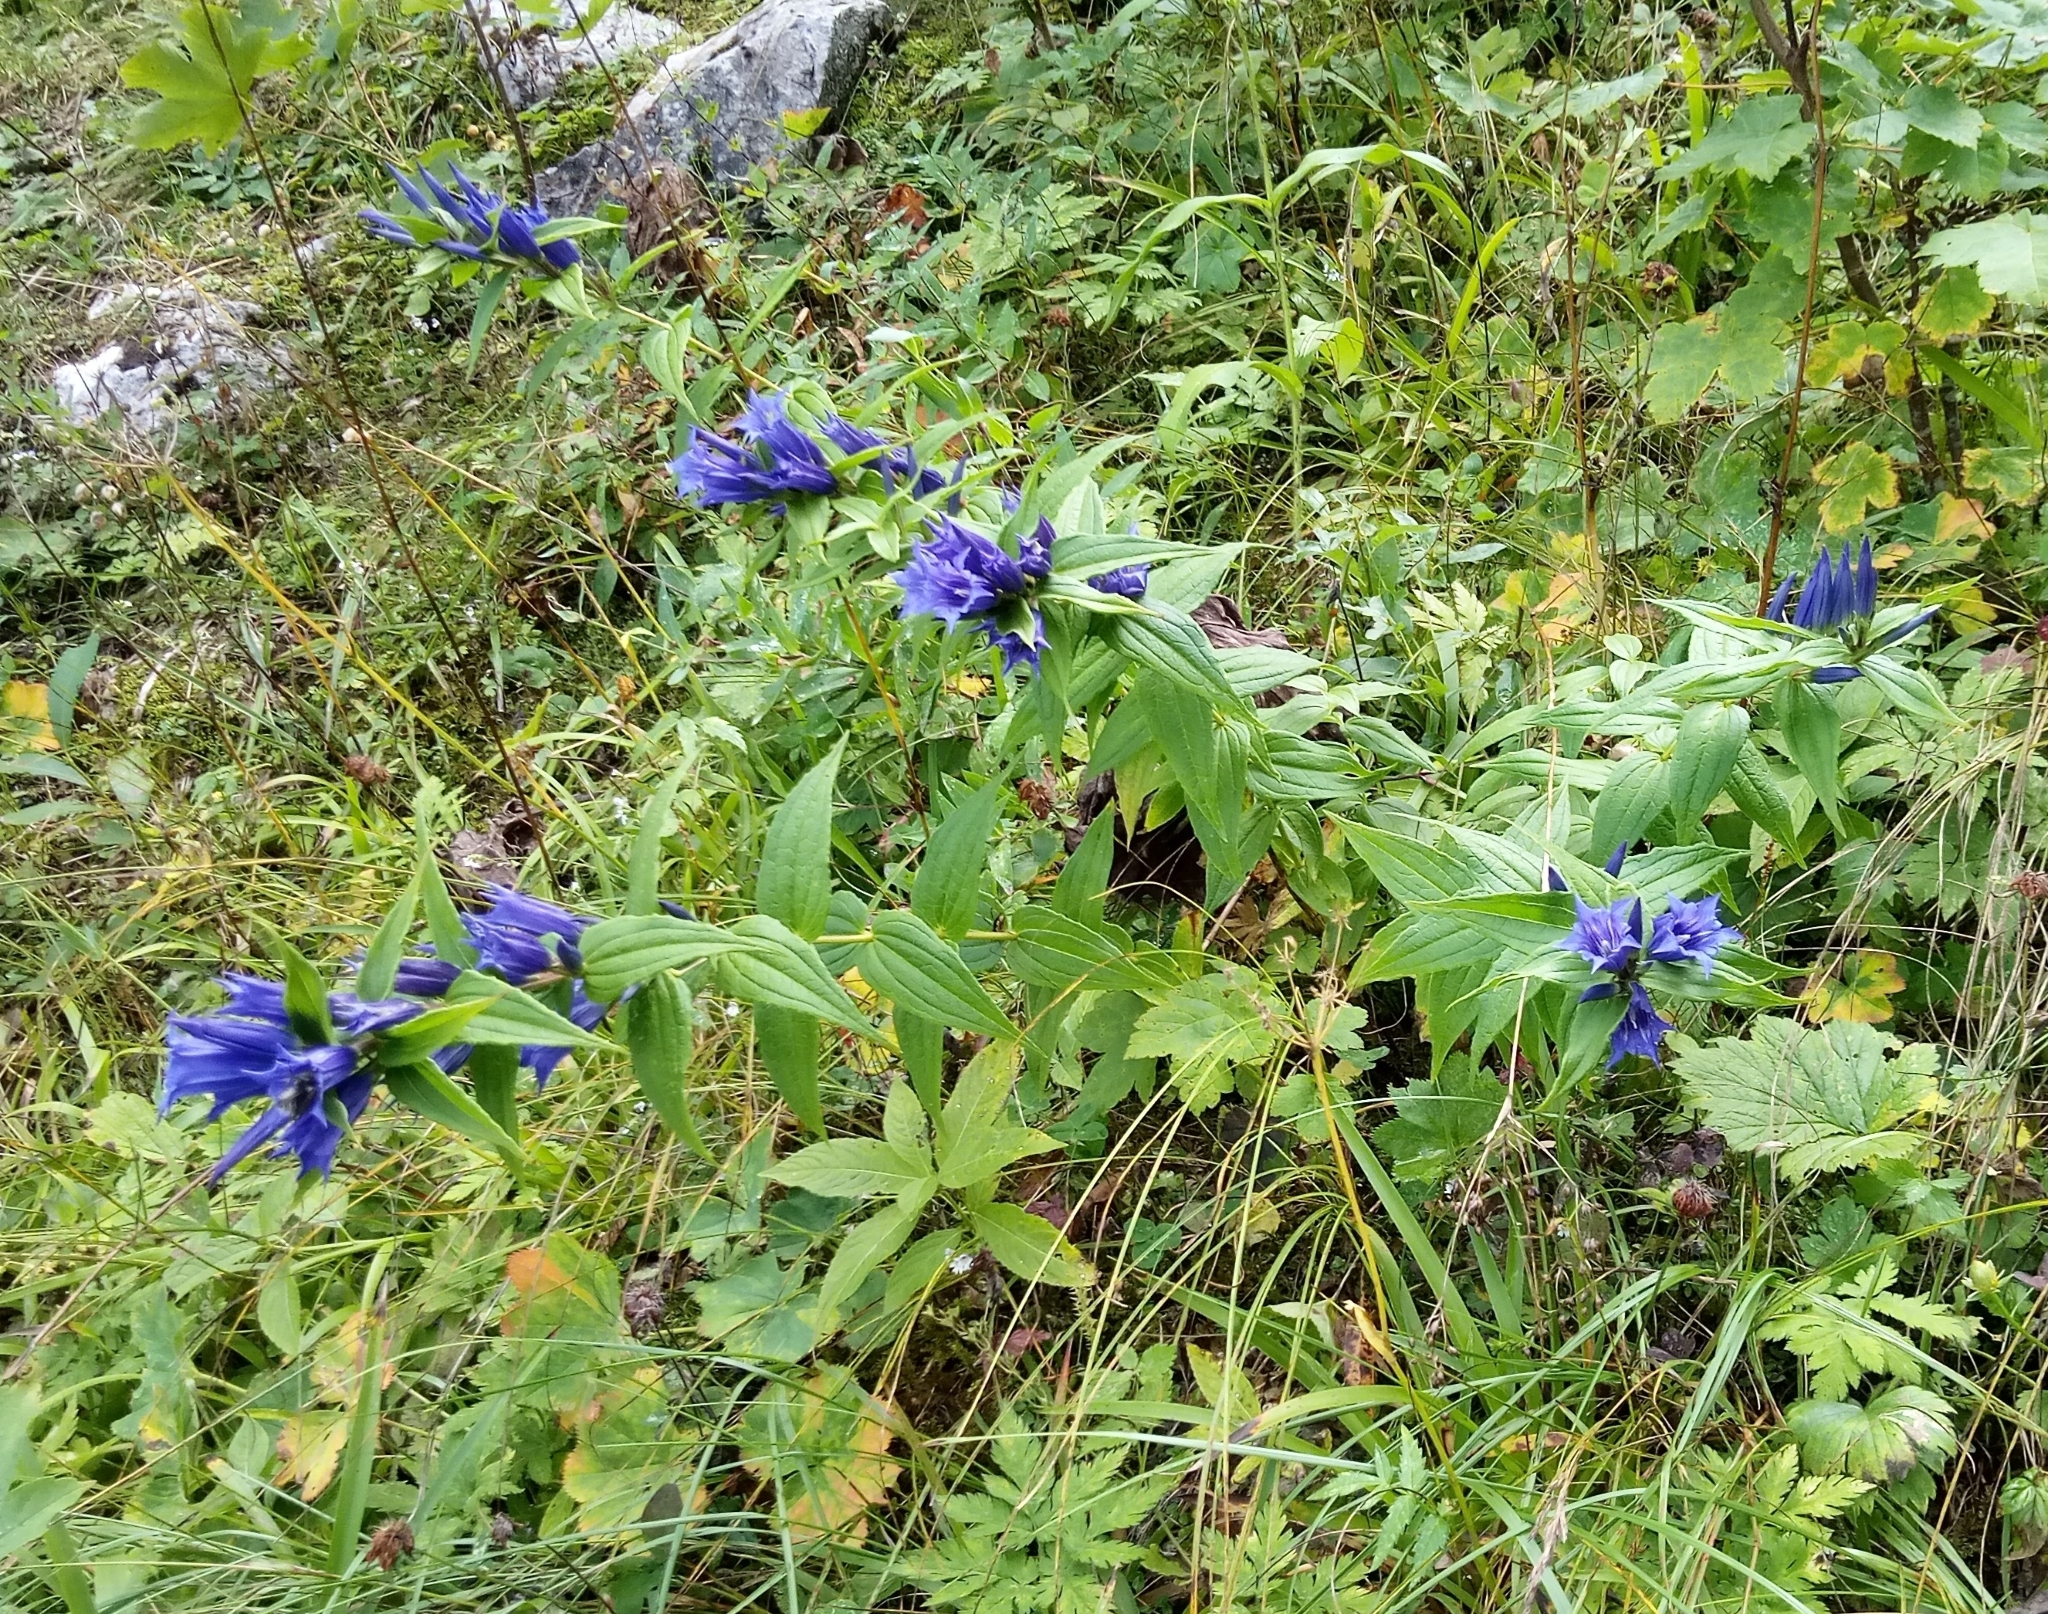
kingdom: Plantae
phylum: Tracheophyta
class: Magnoliopsida
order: Gentianales
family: Gentianaceae
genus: Gentiana
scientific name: Gentiana asclepiadea
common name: Willow gentian
